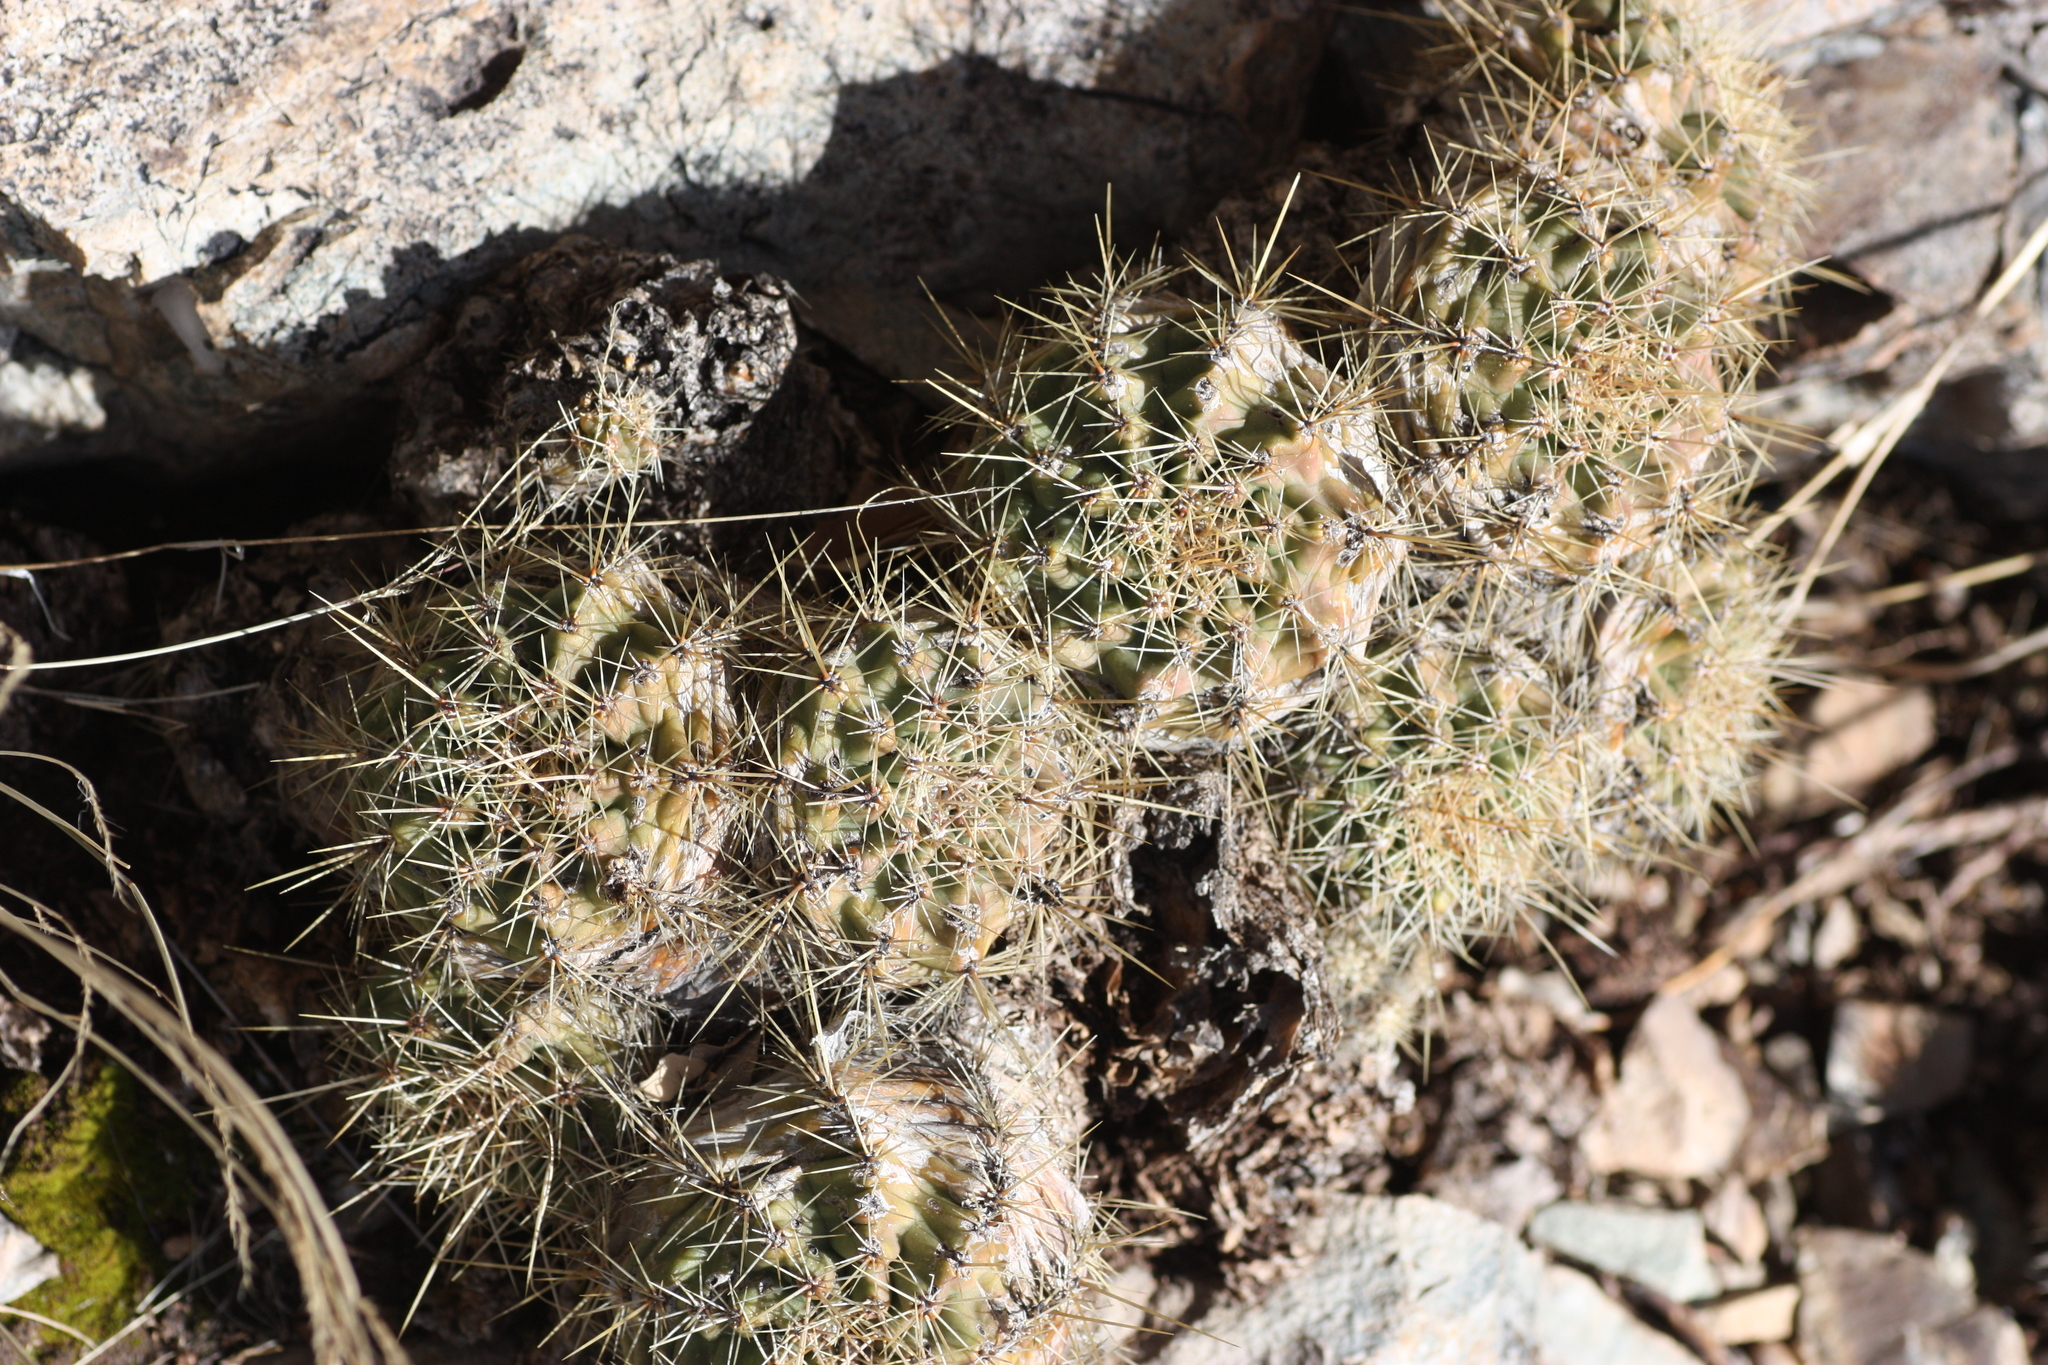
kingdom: Plantae
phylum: Tracheophyta
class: Magnoliopsida
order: Caryophyllales
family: Cactaceae
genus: Echinocereus
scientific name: Echinocereus coccineus
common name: Scarlet hedgehog cactus
